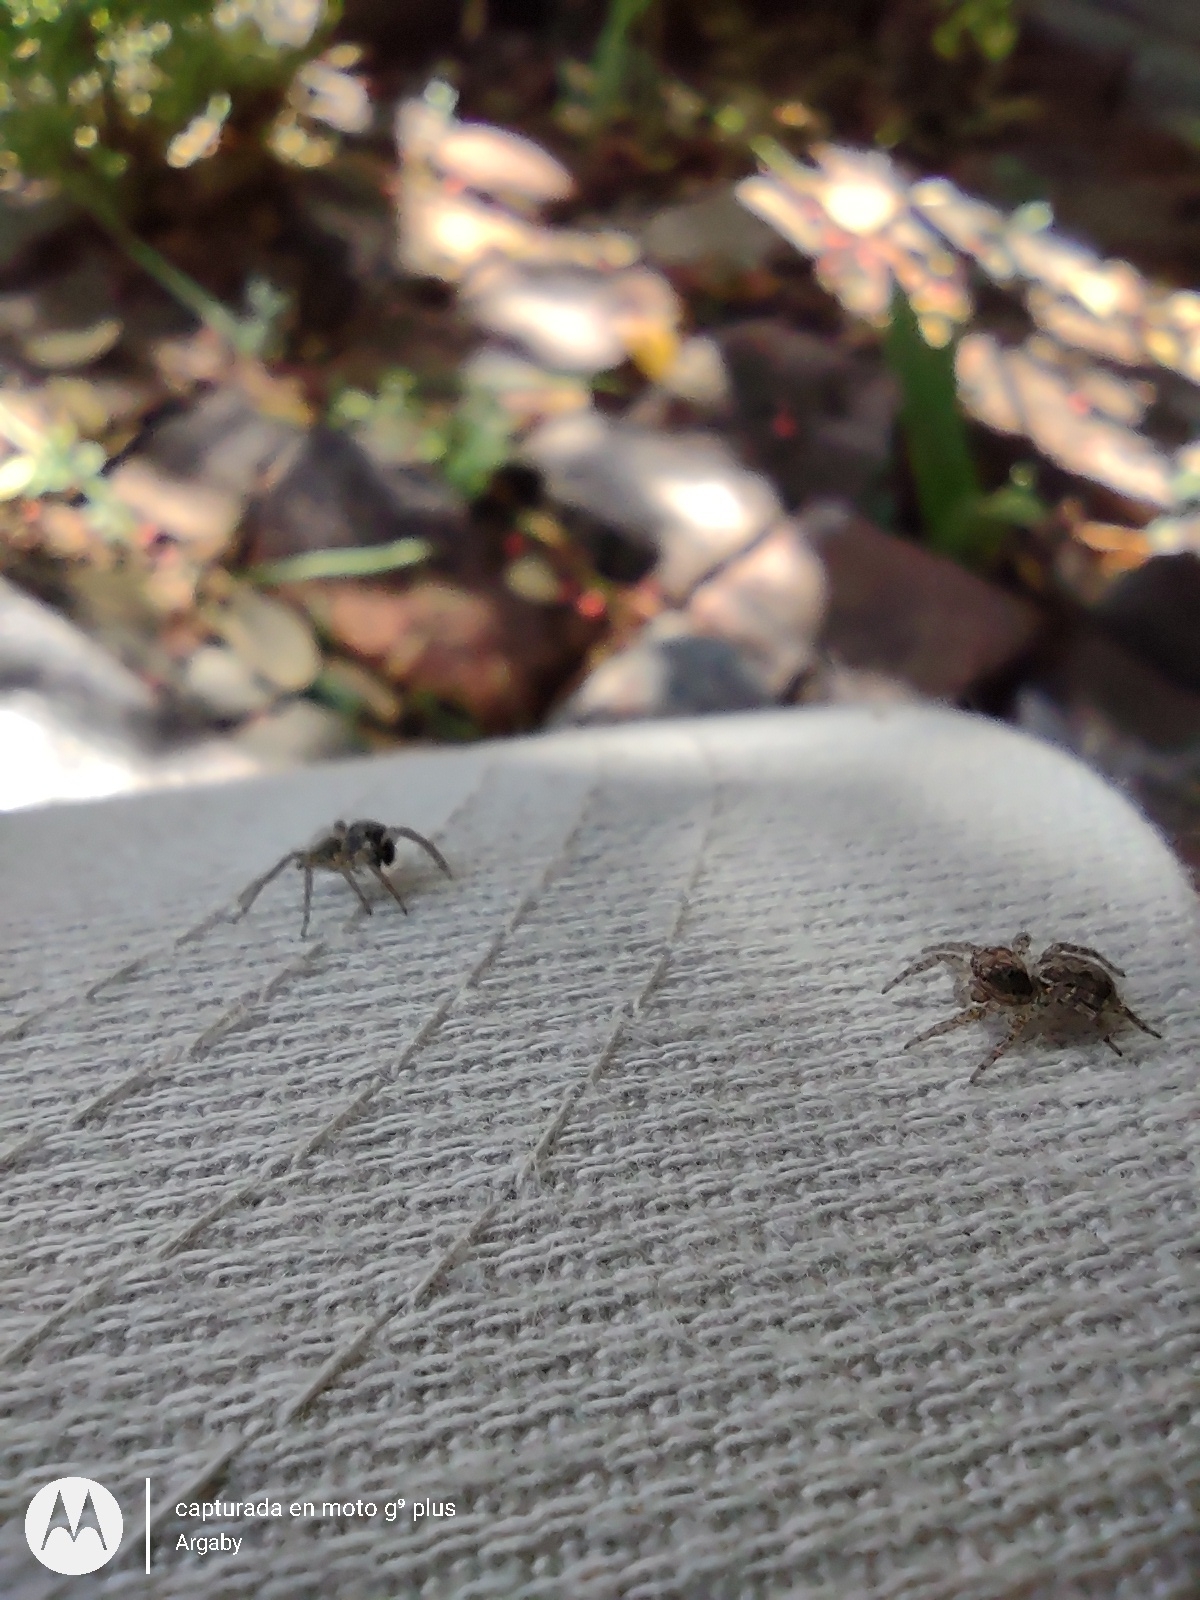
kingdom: Animalia
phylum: Arthropoda
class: Arachnida
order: Araneae
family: Salticidae
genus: Saitis
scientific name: Saitis variegatus
